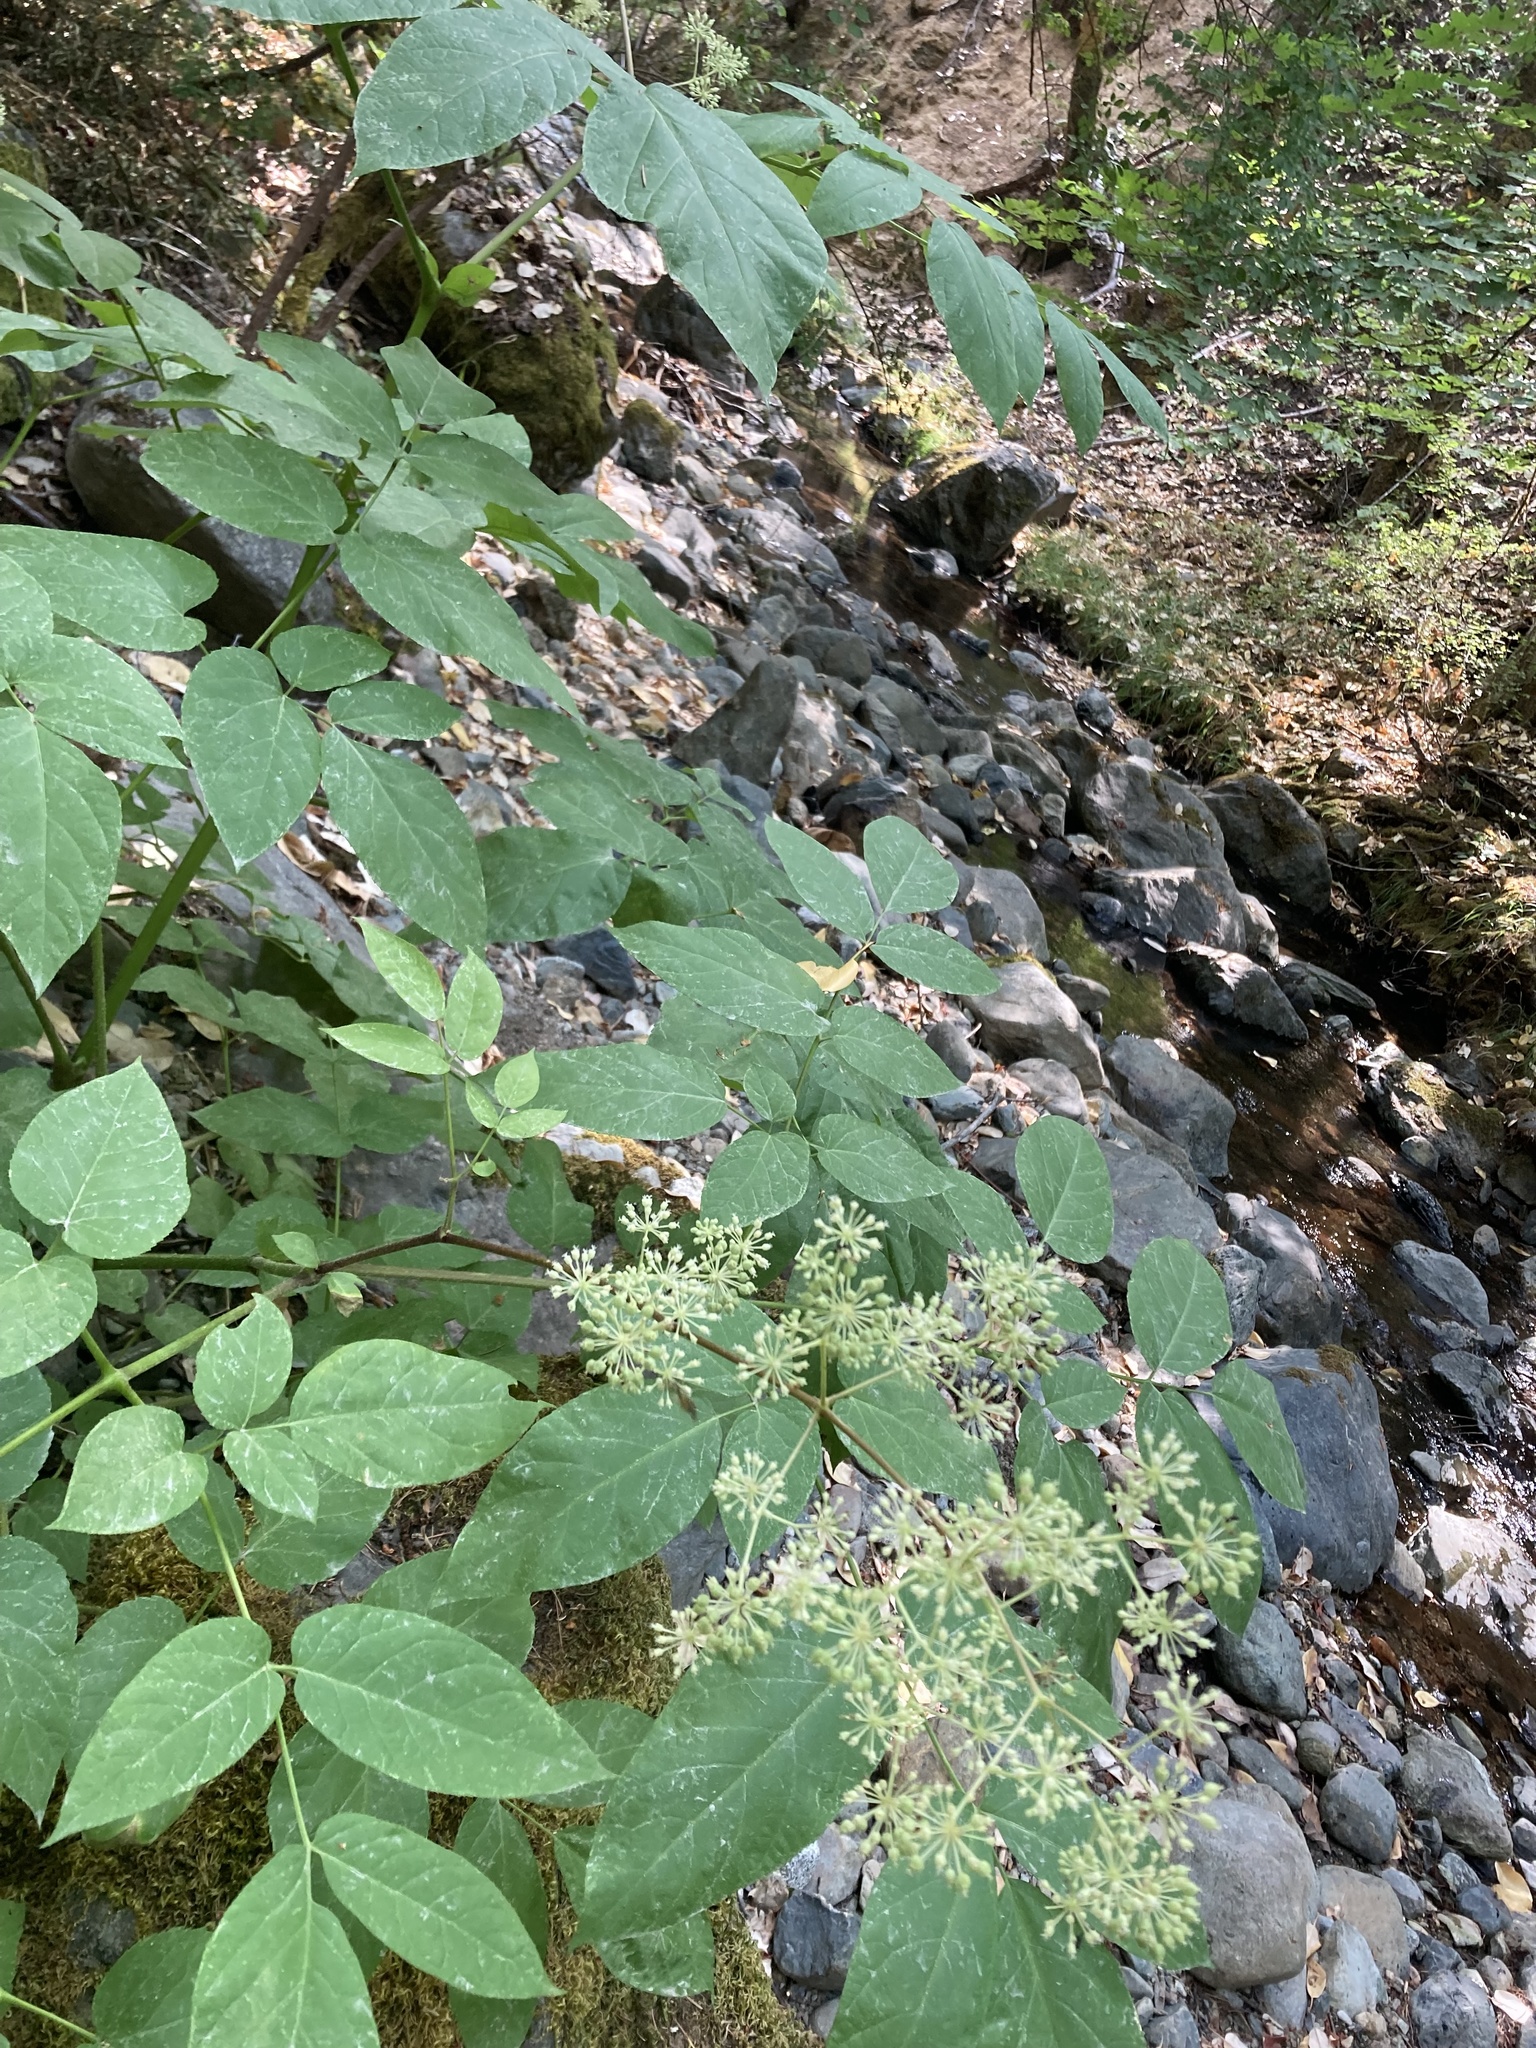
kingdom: Plantae
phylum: Tracheophyta
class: Magnoliopsida
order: Apiales
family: Araliaceae
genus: Aralia
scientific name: Aralia californica
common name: California-ginseng
